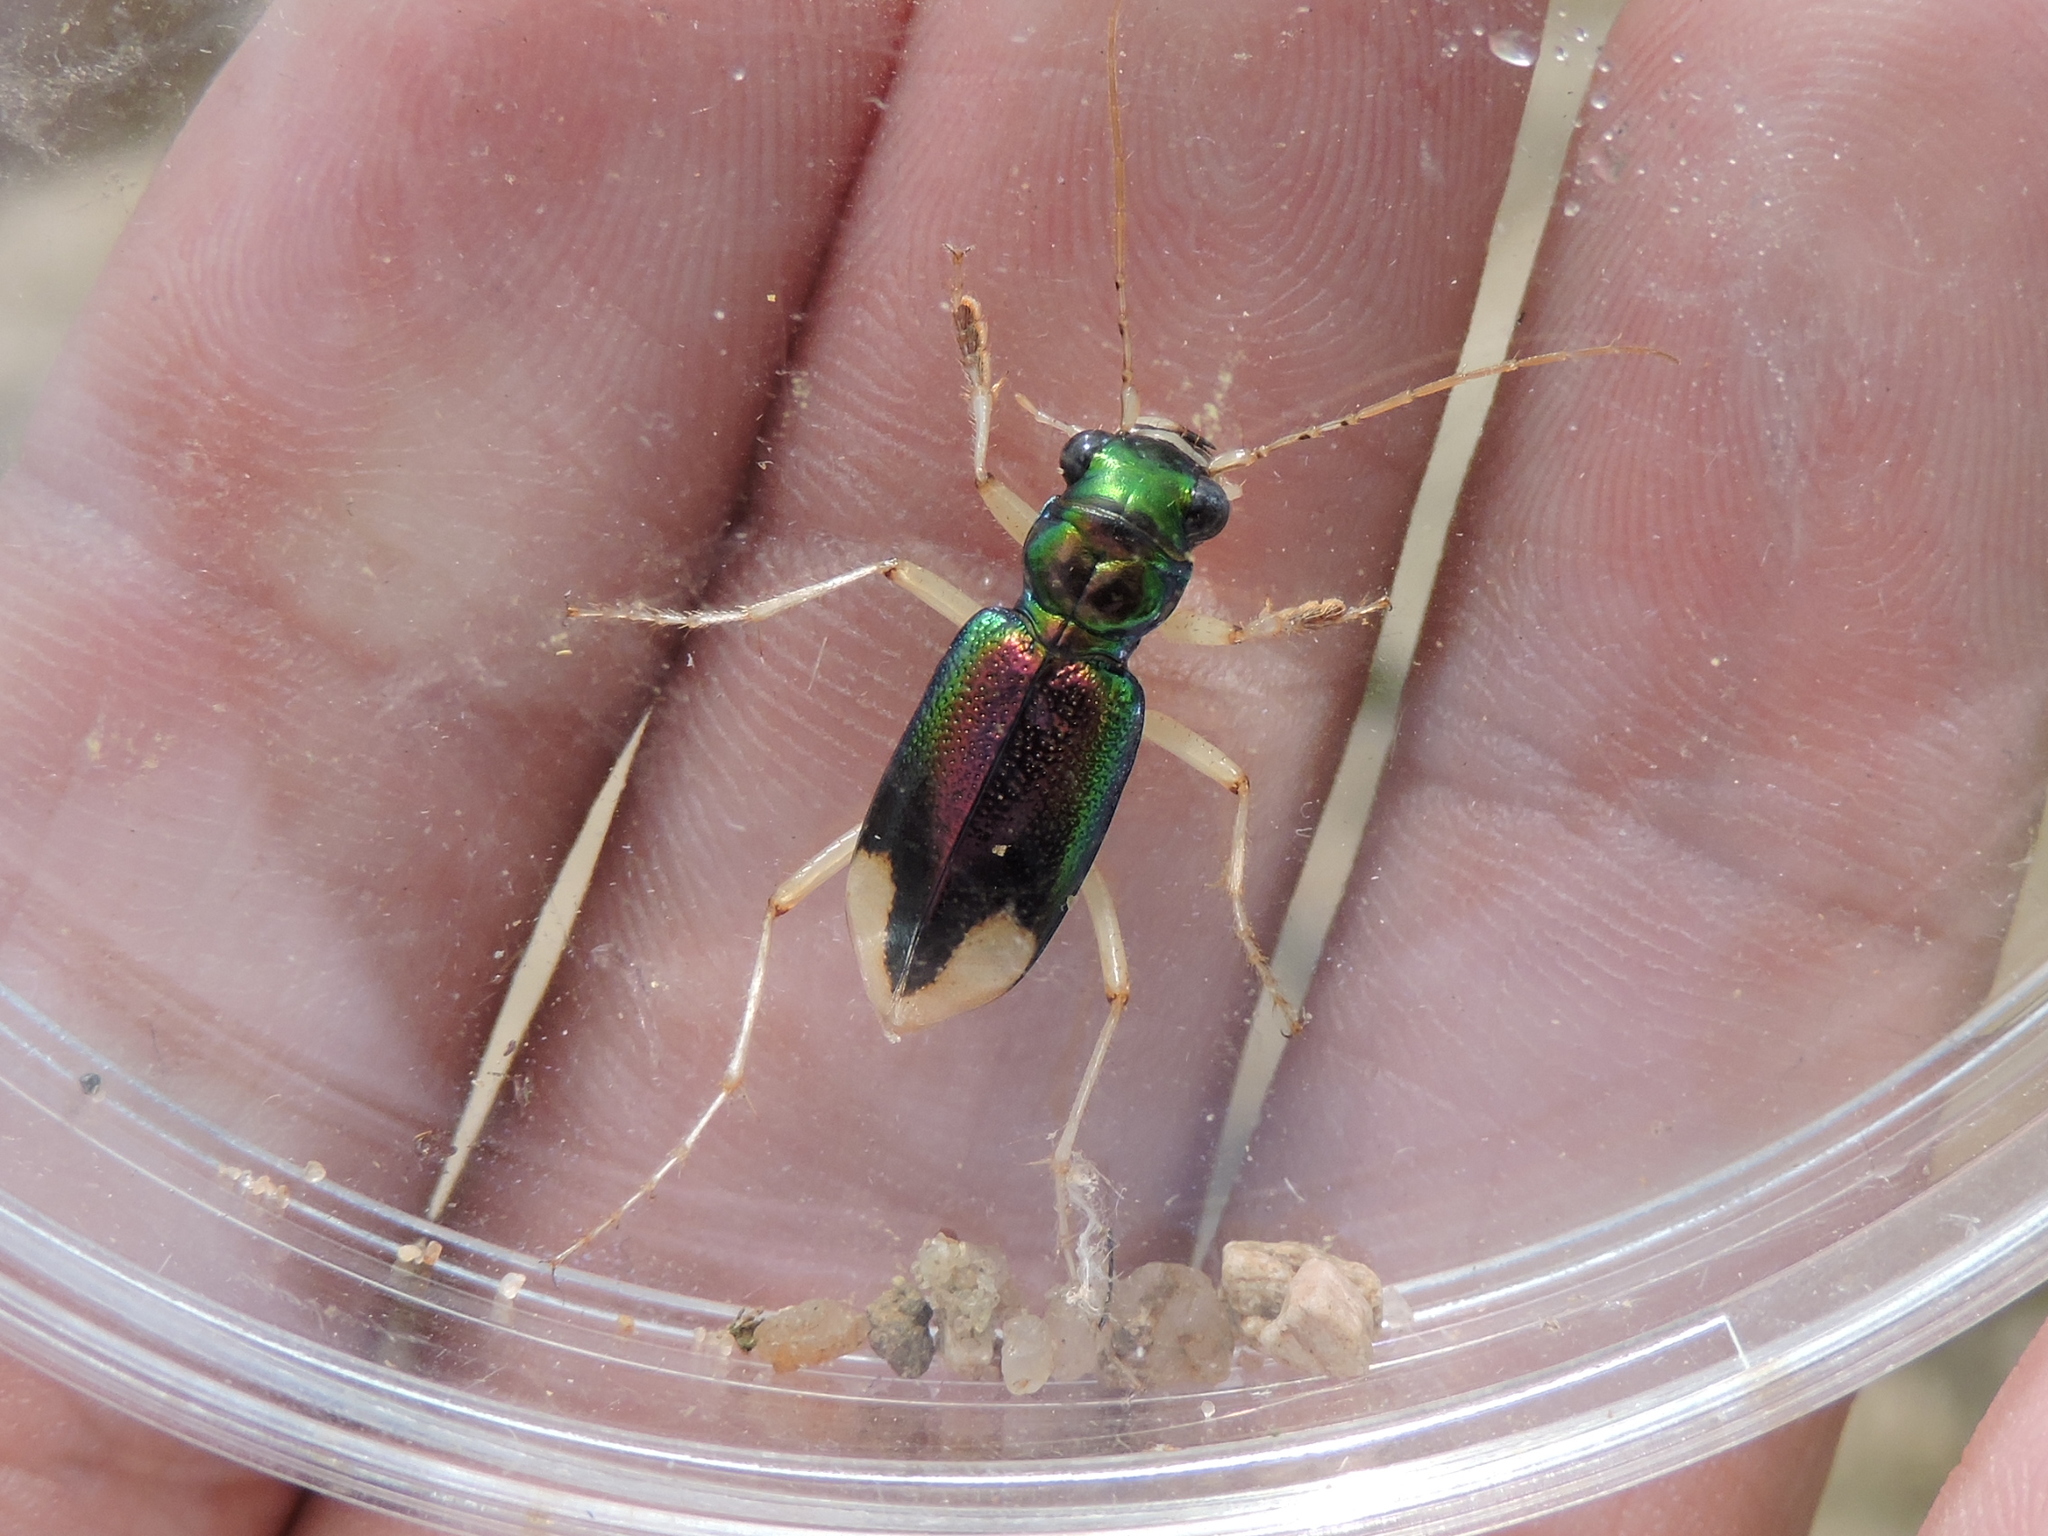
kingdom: Animalia
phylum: Arthropoda
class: Insecta
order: Coleoptera
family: Carabidae
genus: Tetracha
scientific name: Tetracha carolina
